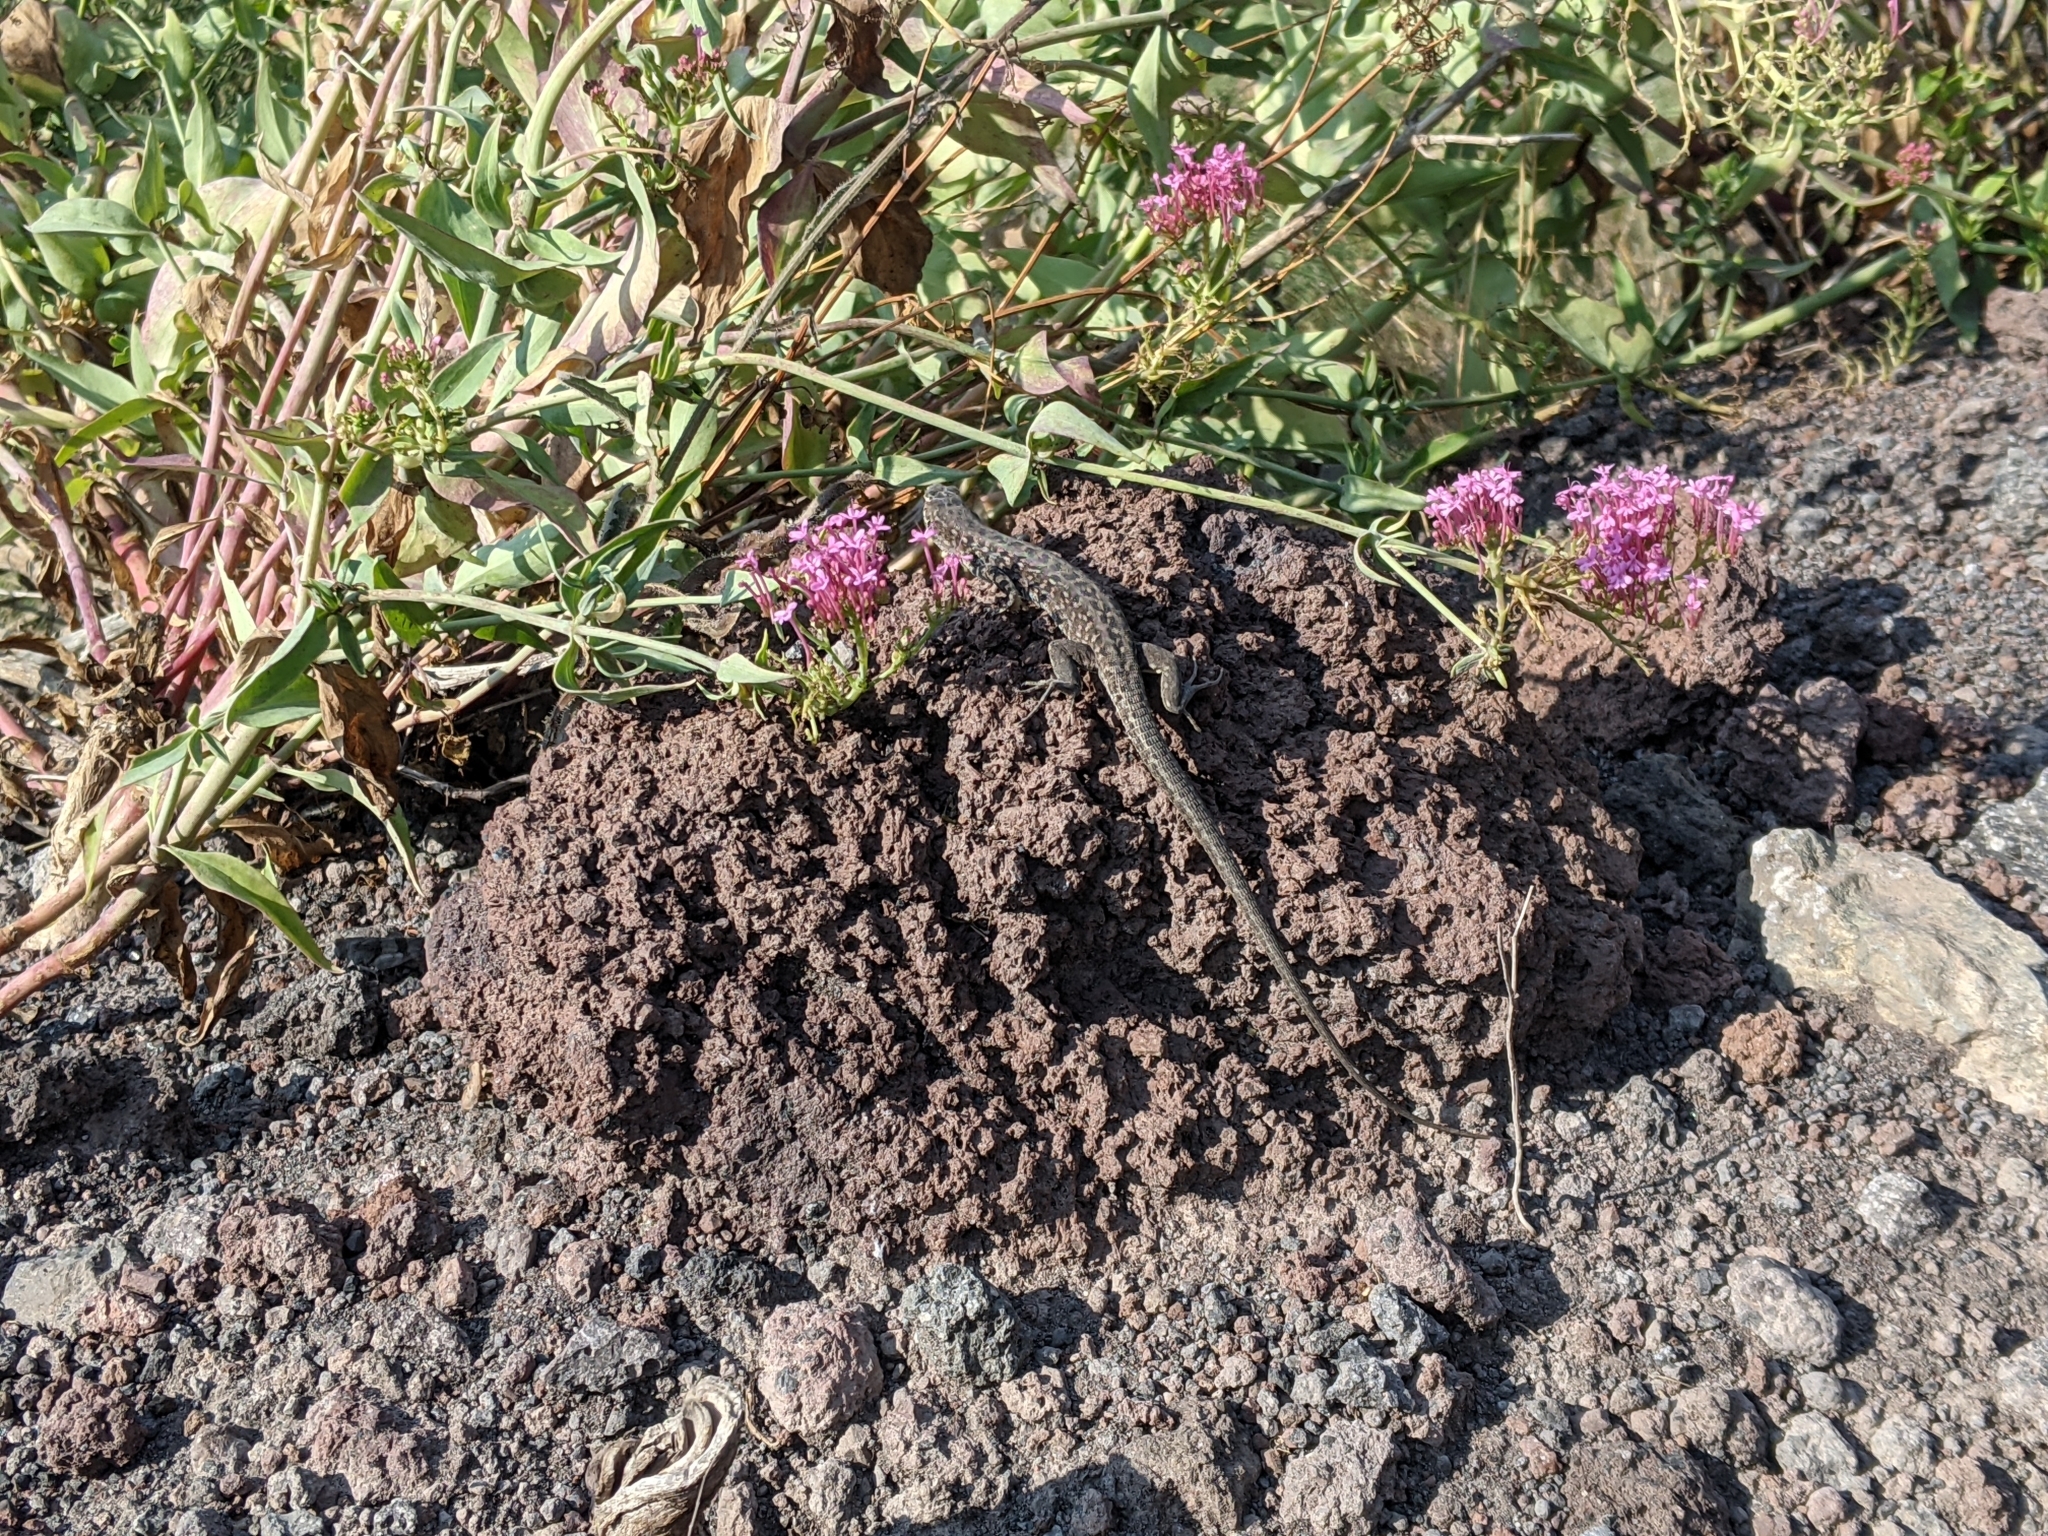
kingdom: Animalia
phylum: Chordata
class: Squamata
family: Lacertidae
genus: Podarcis
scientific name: Podarcis siculus
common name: Italian wall lizard
